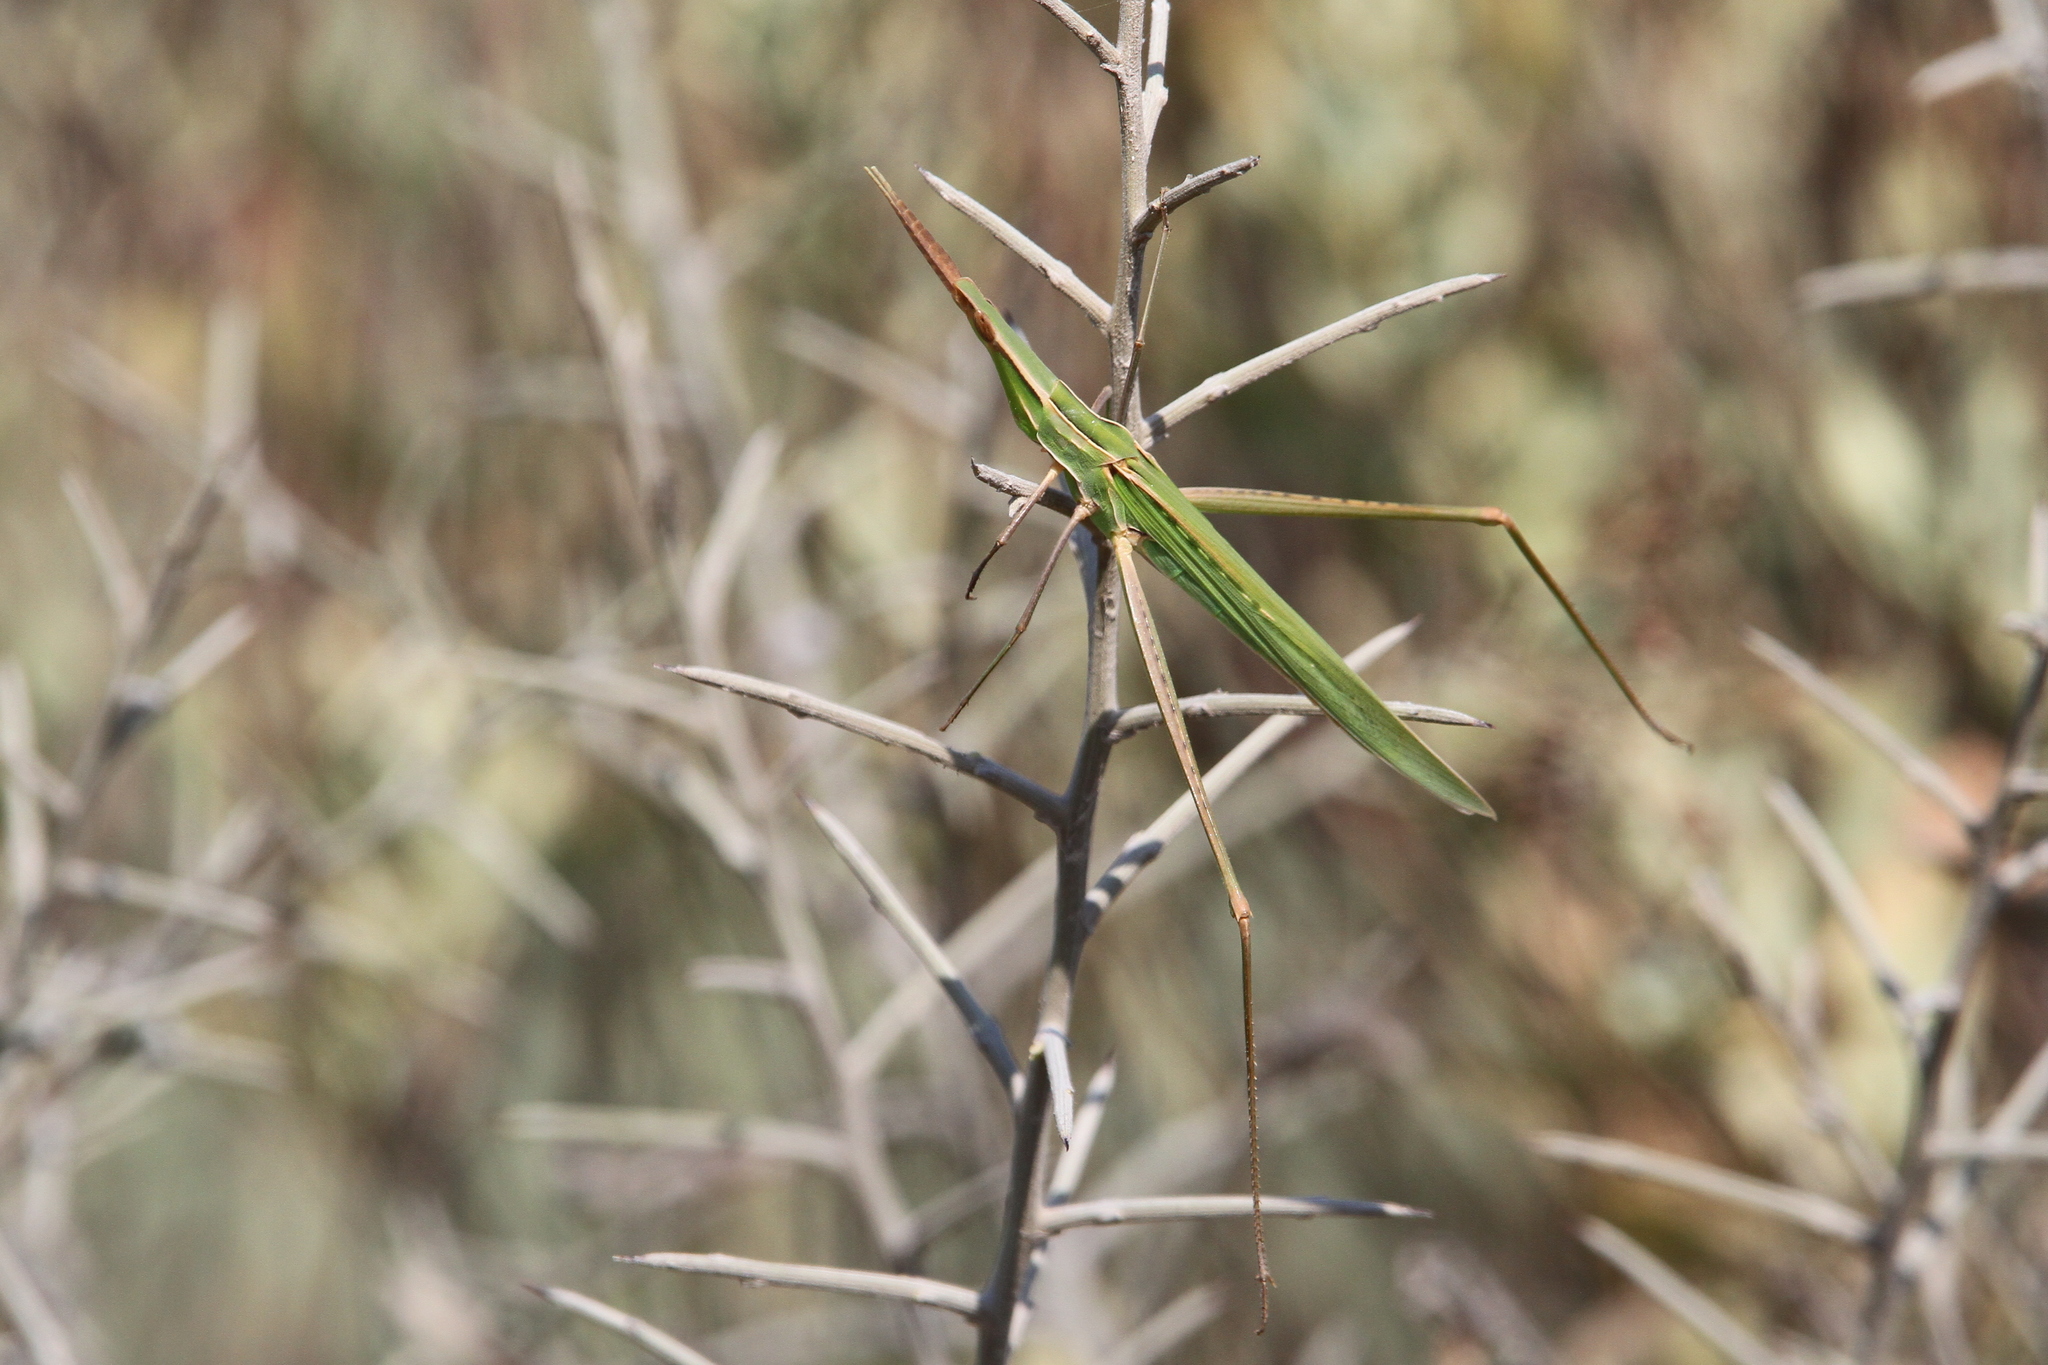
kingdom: Animalia
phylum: Arthropoda
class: Insecta
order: Orthoptera
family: Acrididae
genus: Acrida
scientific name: Acrida ungarica
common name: Common cone-headed grasshopper
